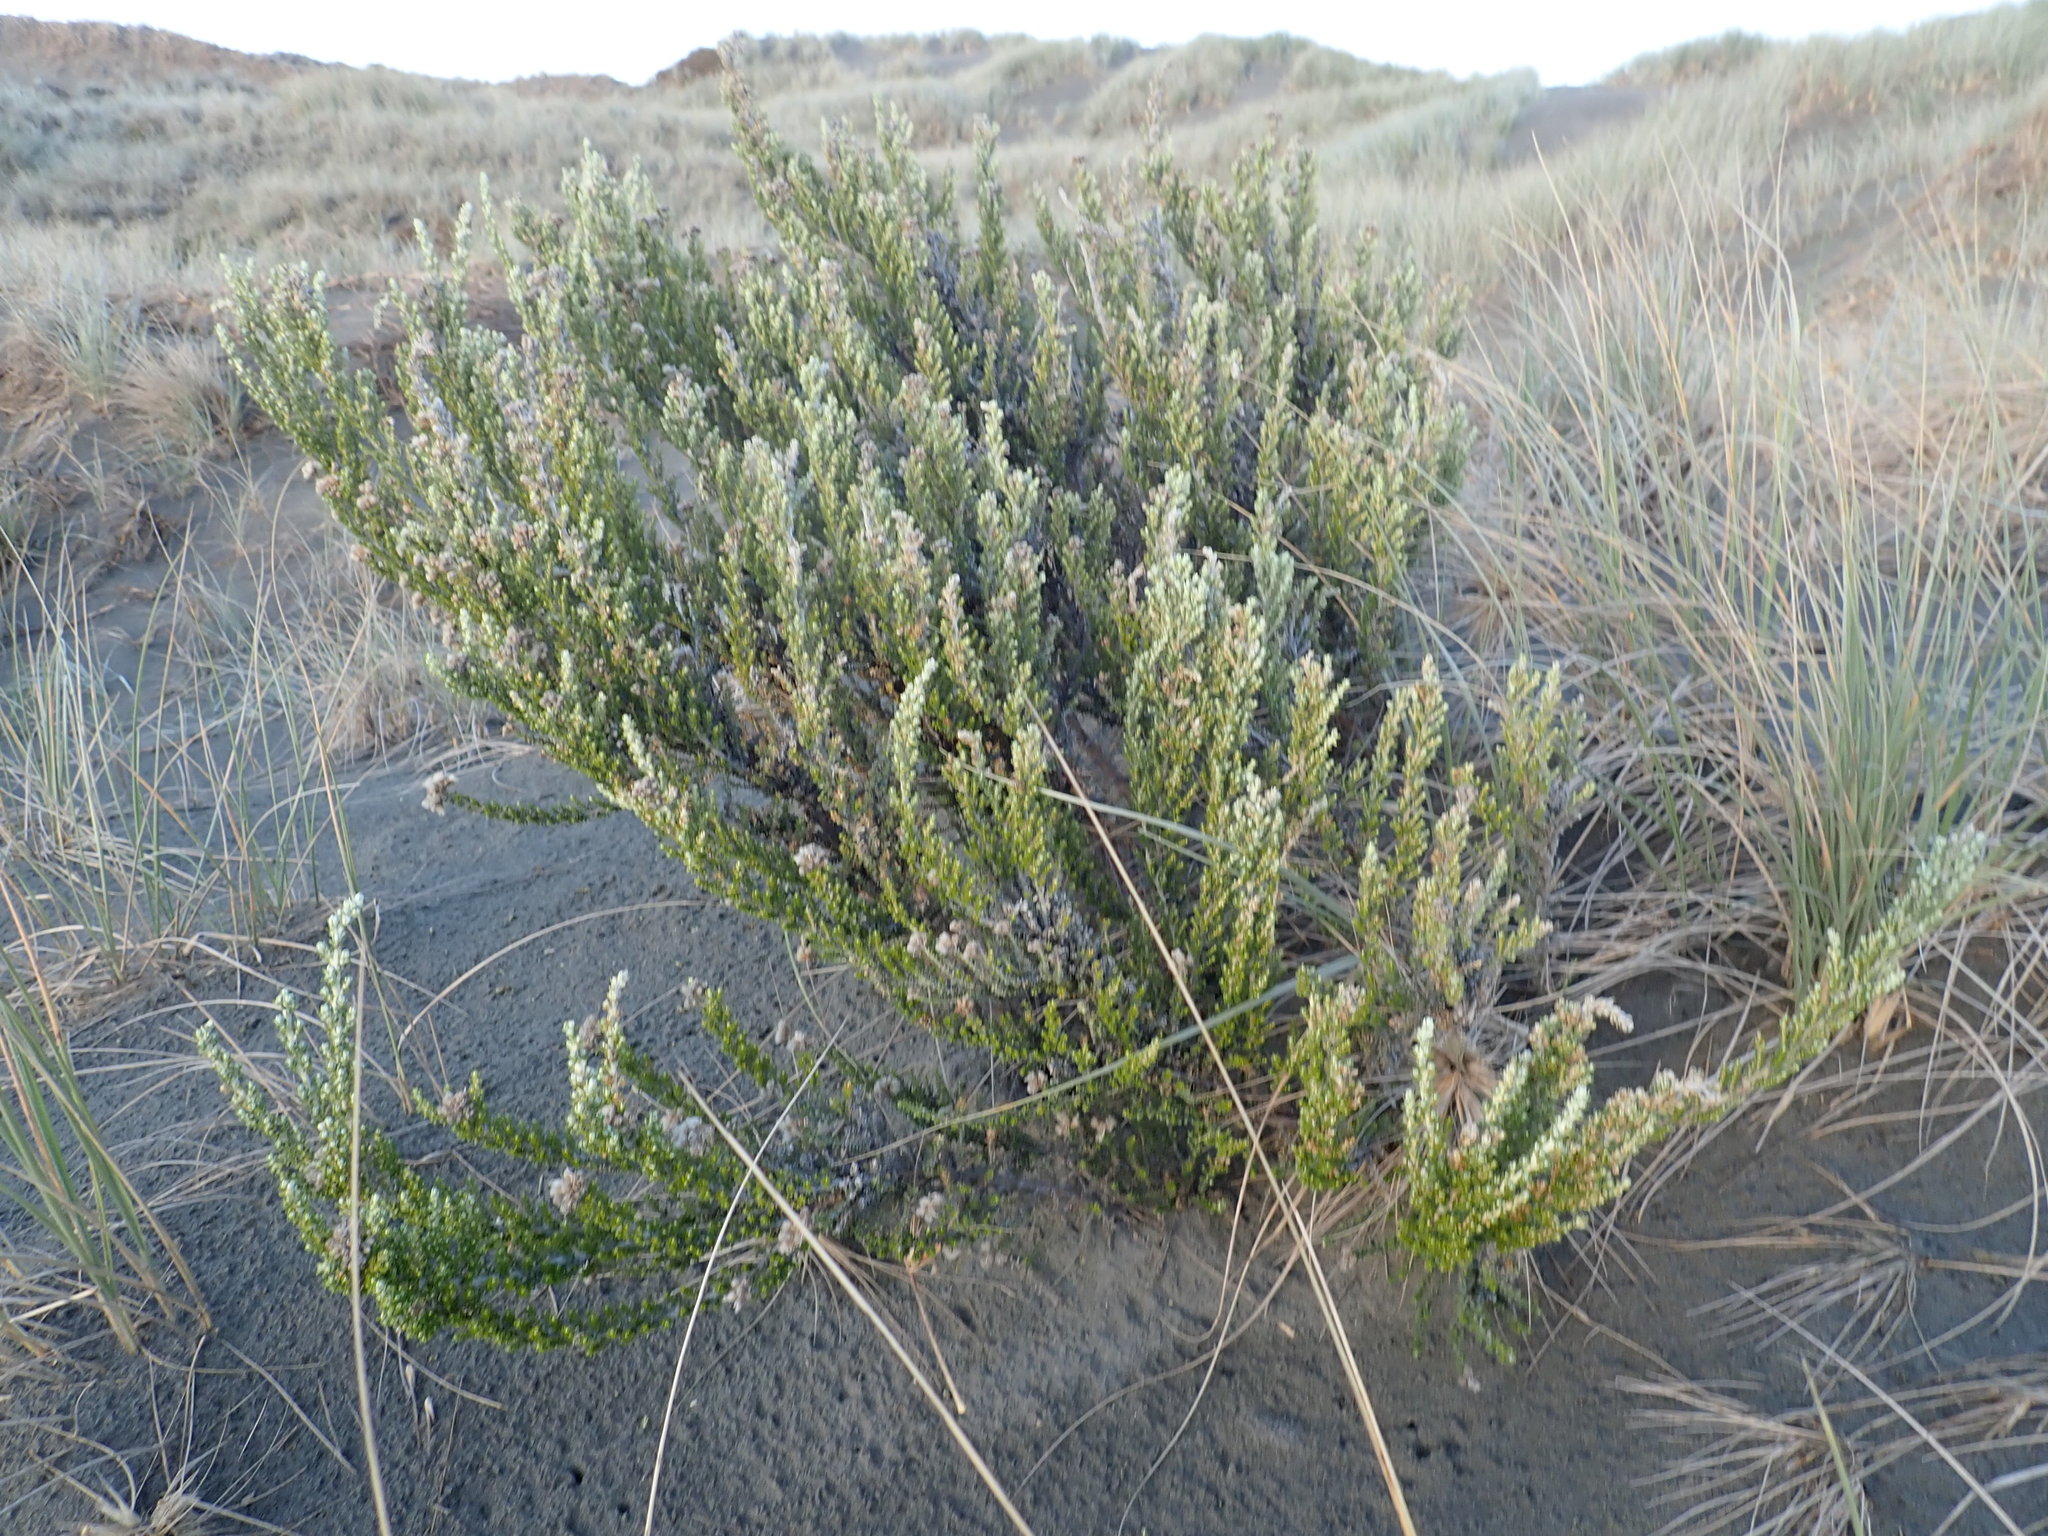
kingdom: Plantae
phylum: Tracheophyta
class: Magnoliopsida
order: Asterales
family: Asteraceae
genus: Ozothamnus
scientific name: Ozothamnus leptophyllus
